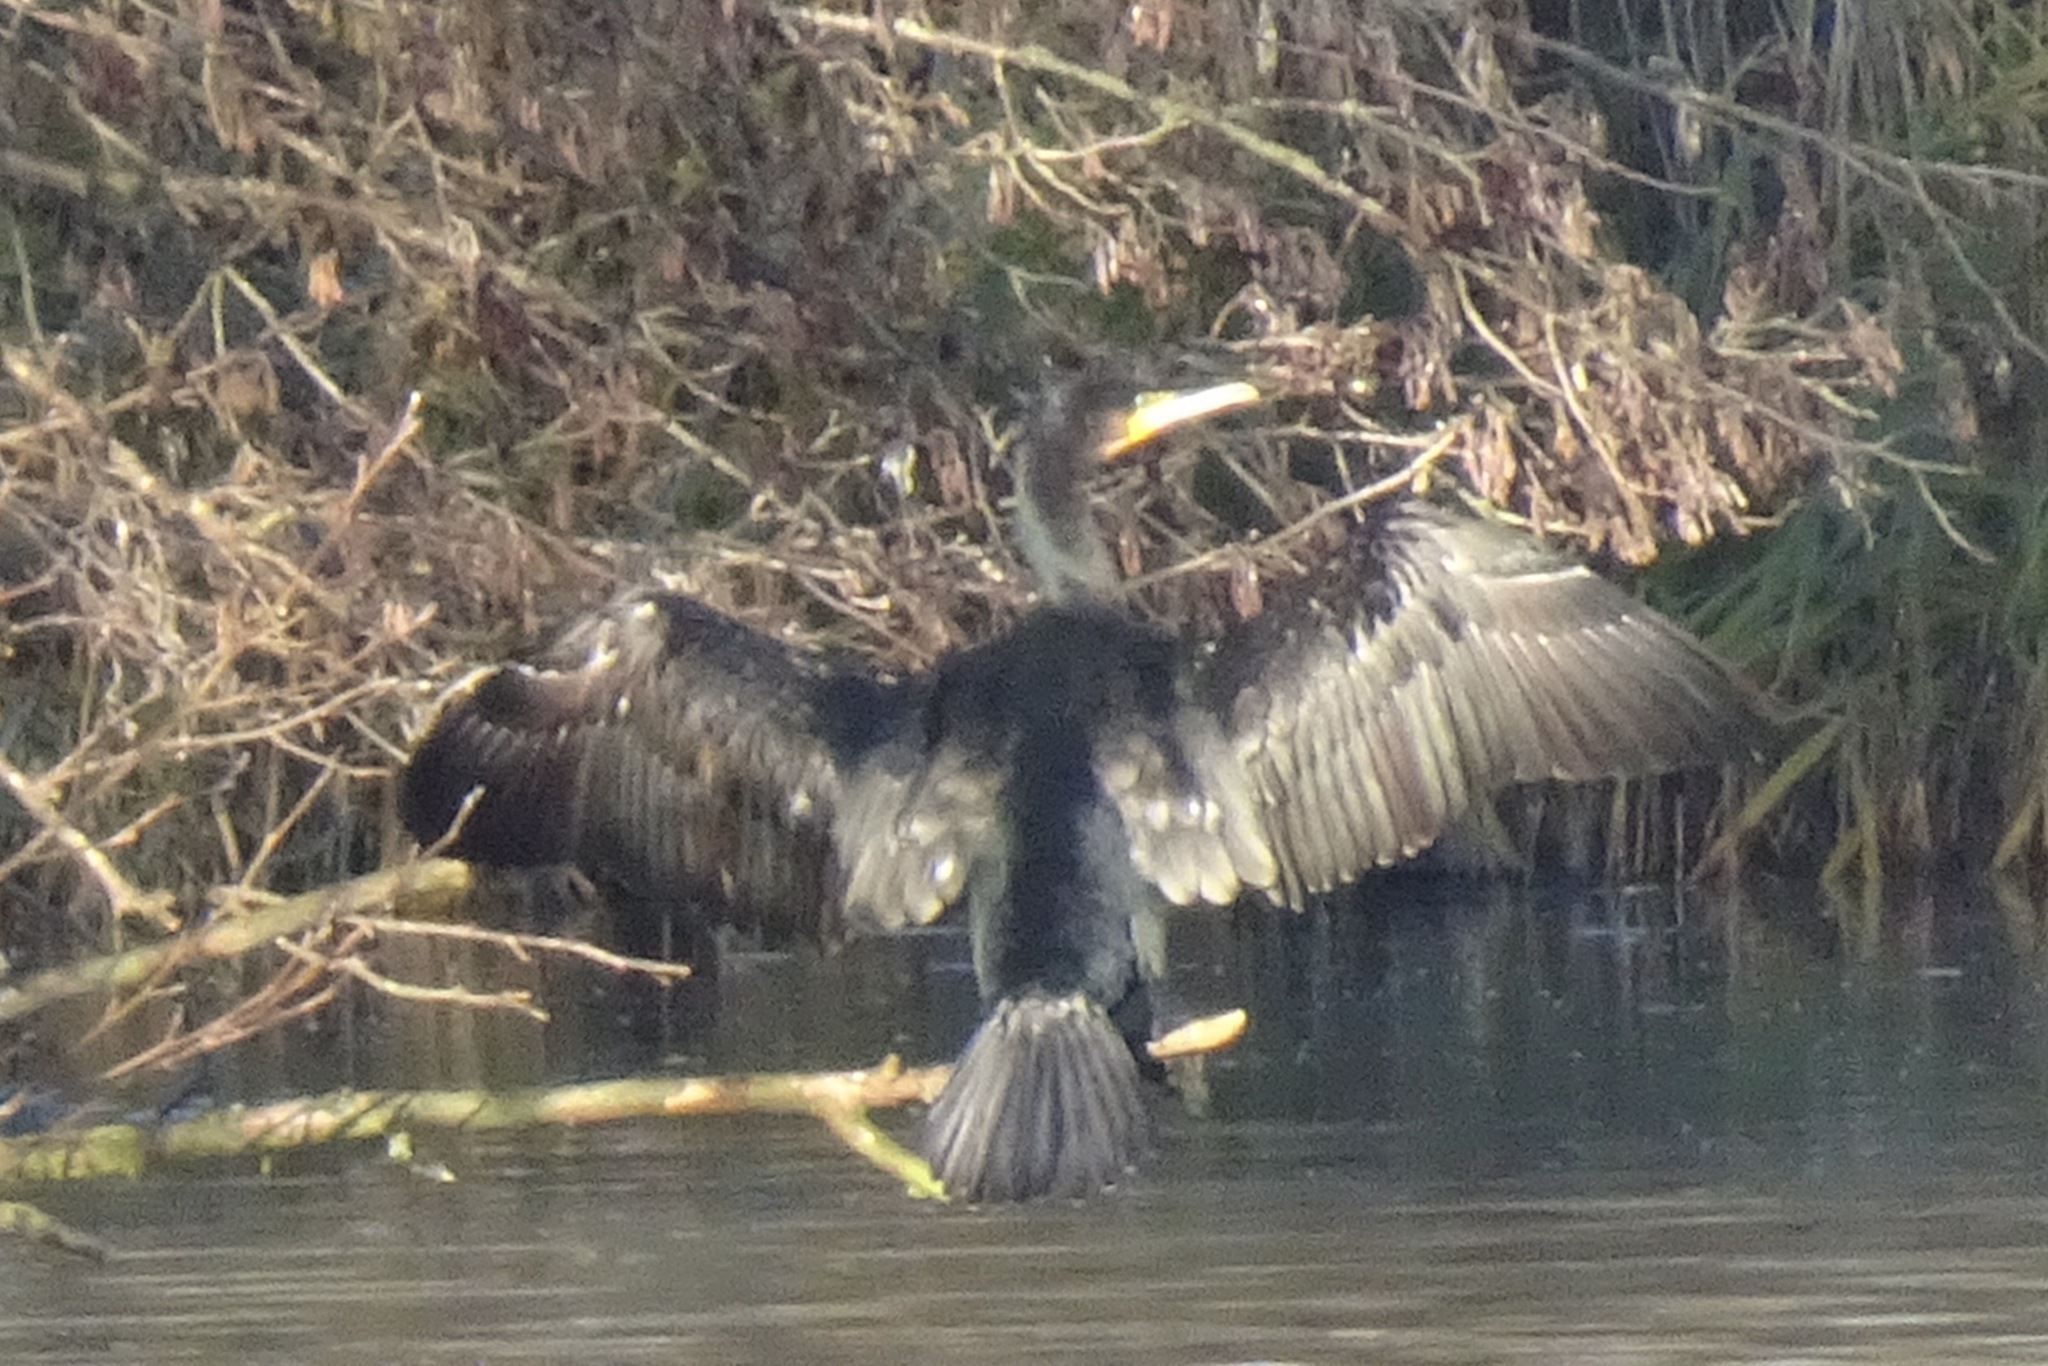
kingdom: Animalia
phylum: Chordata
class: Aves
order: Suliformes
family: Phalacrocoracidae
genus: Phalacrocorax
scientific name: Phalacrocorax carbo
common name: Great cormorant
